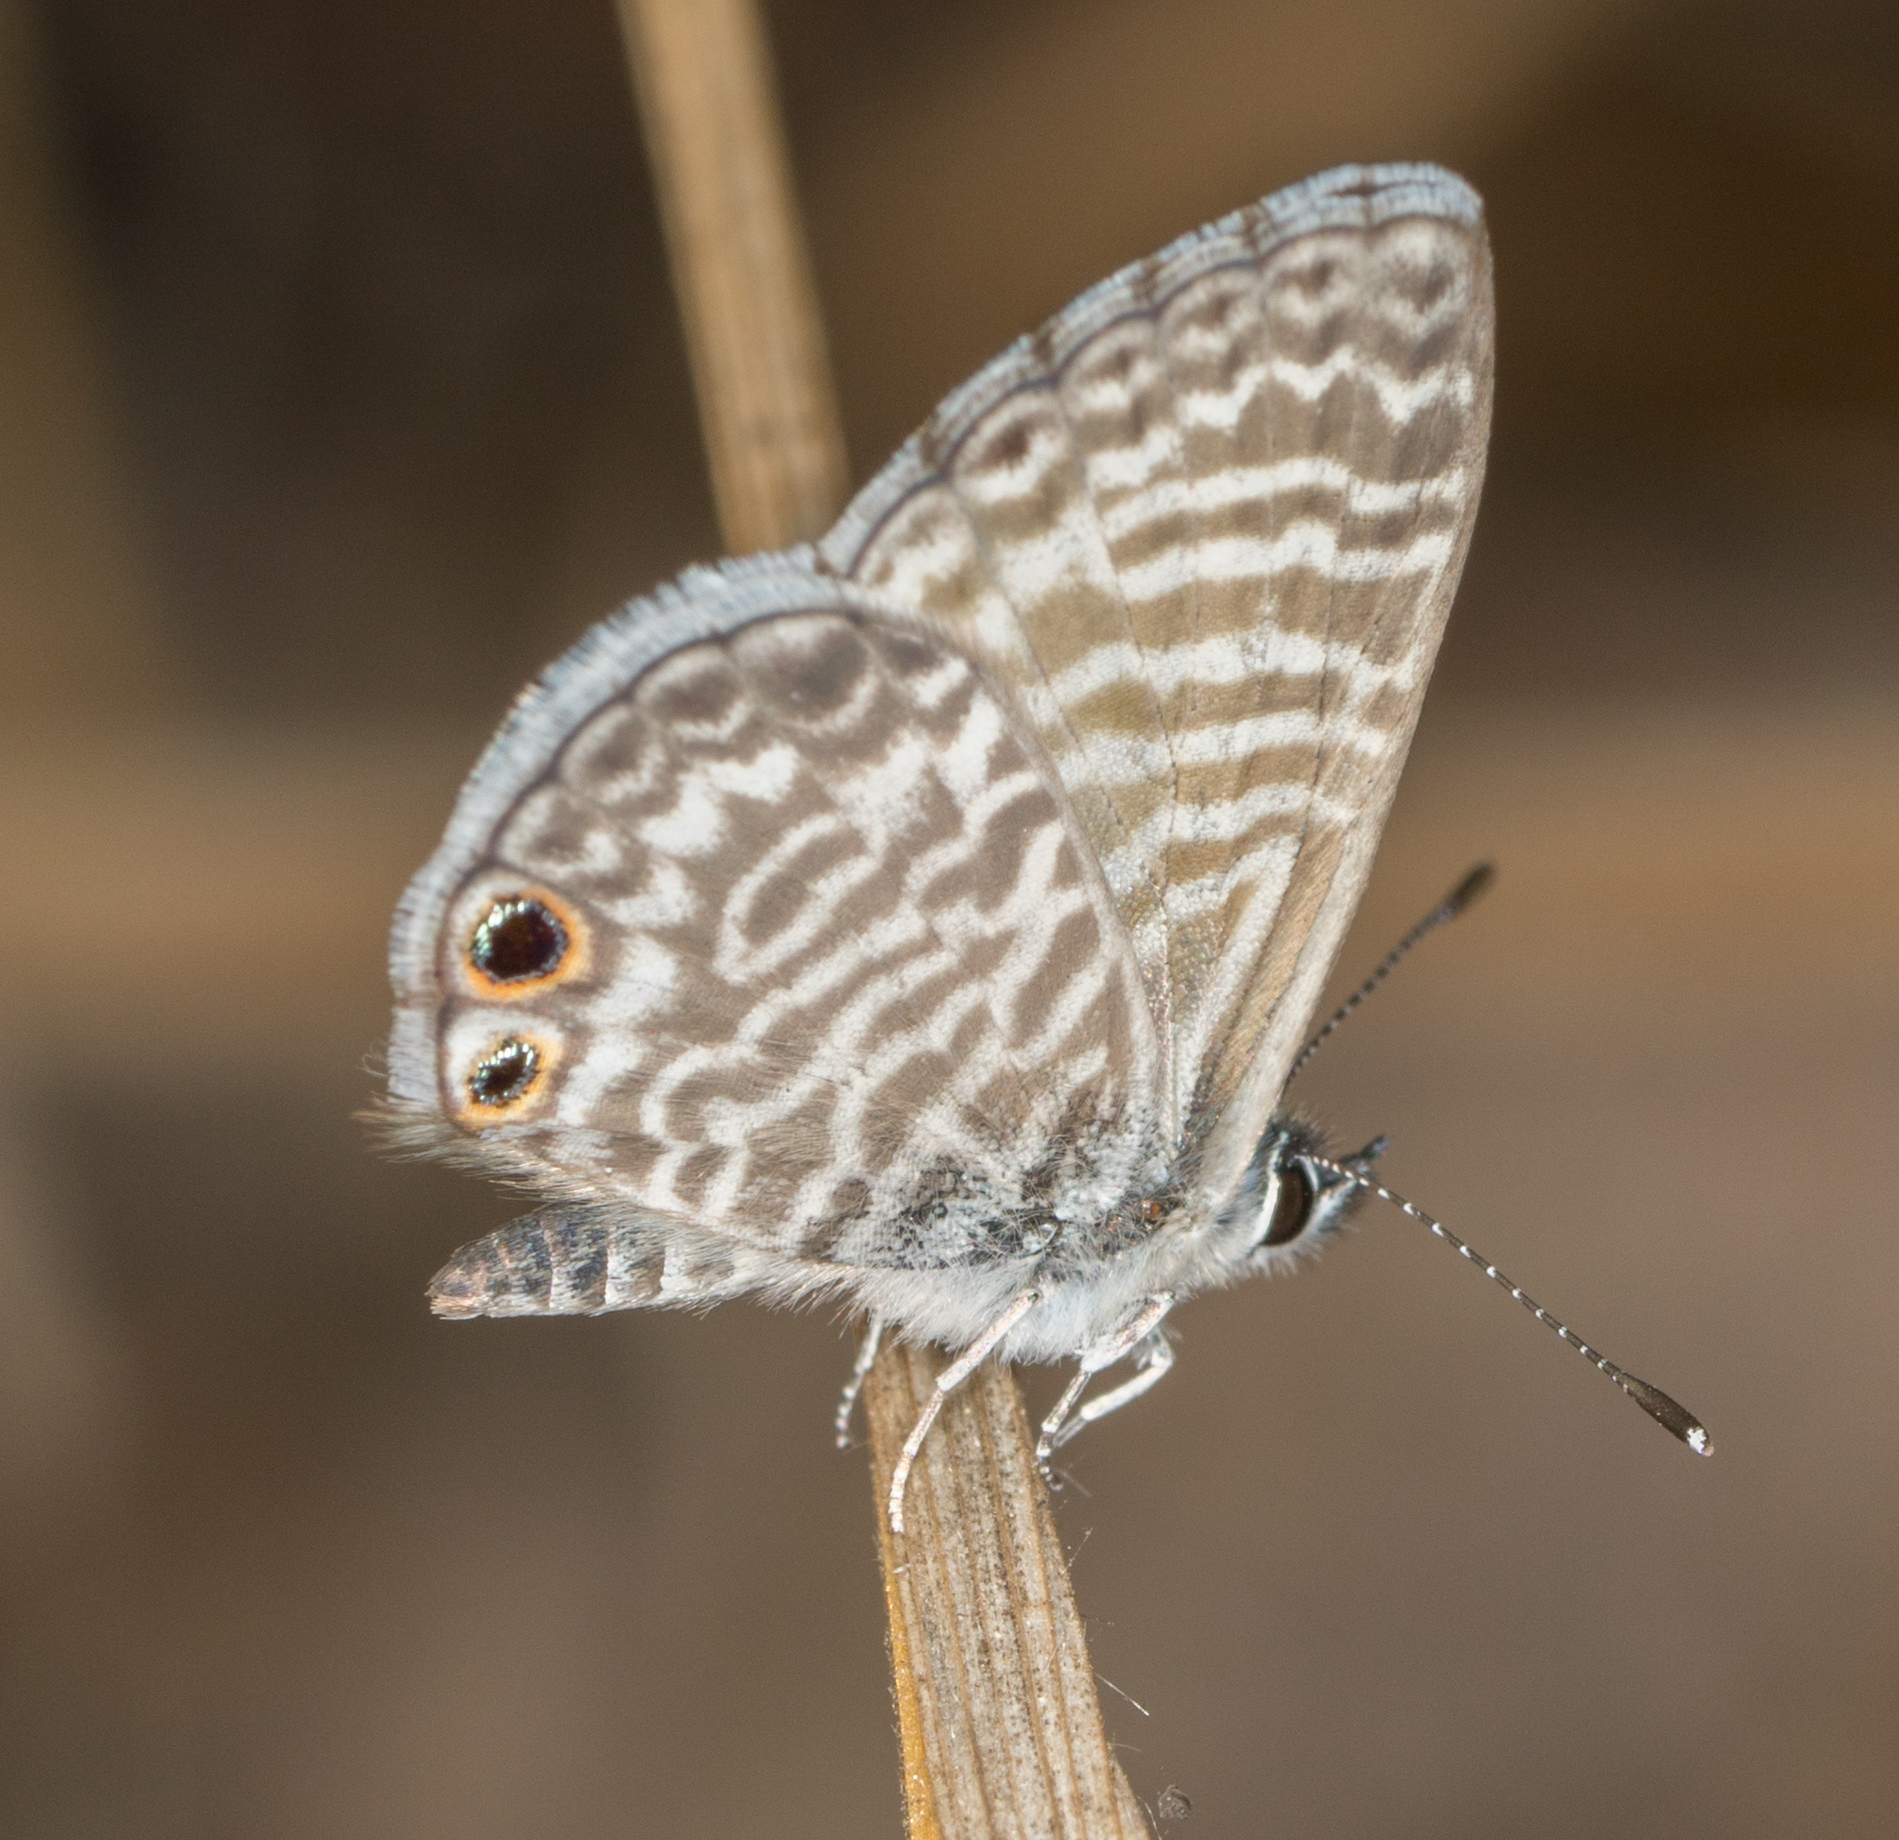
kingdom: Animalia
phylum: Arthropoda
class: Insecta
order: Lepidoptera
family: Lycaenidae
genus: Leptotes
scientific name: Leptotes marina
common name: Marine blue
